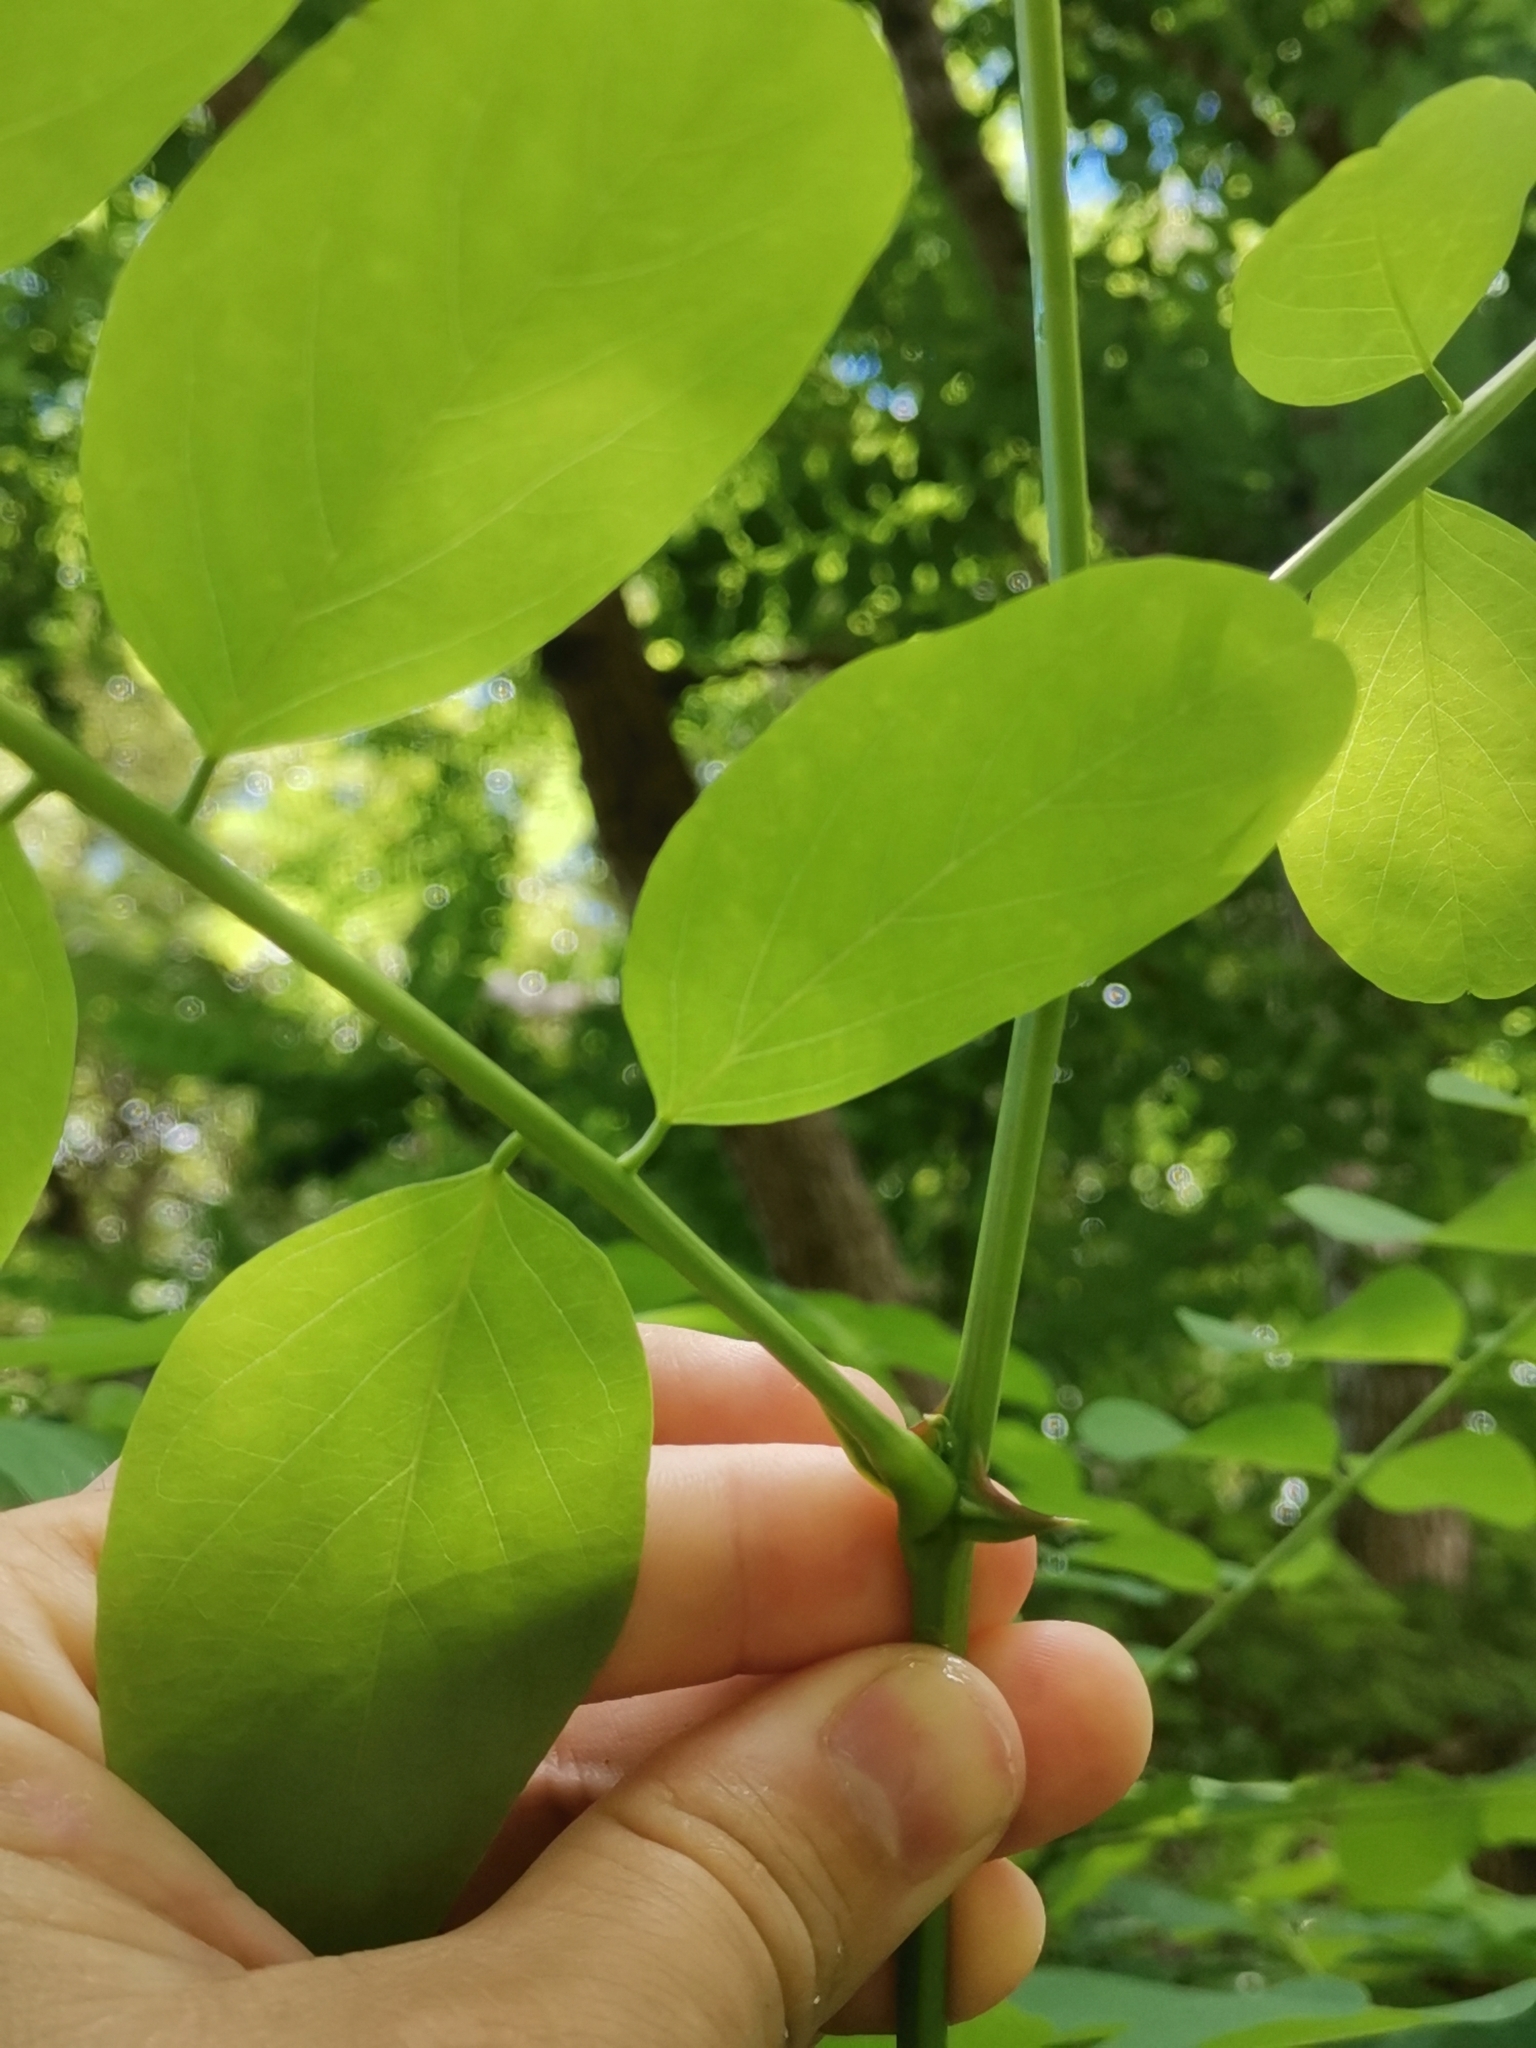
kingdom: Plantae
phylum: Tracheophyta
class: Magnoliopsida
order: Fabales
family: Fabaceae
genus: Robinia
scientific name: Robinia pseudoacacia
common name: Black locust
